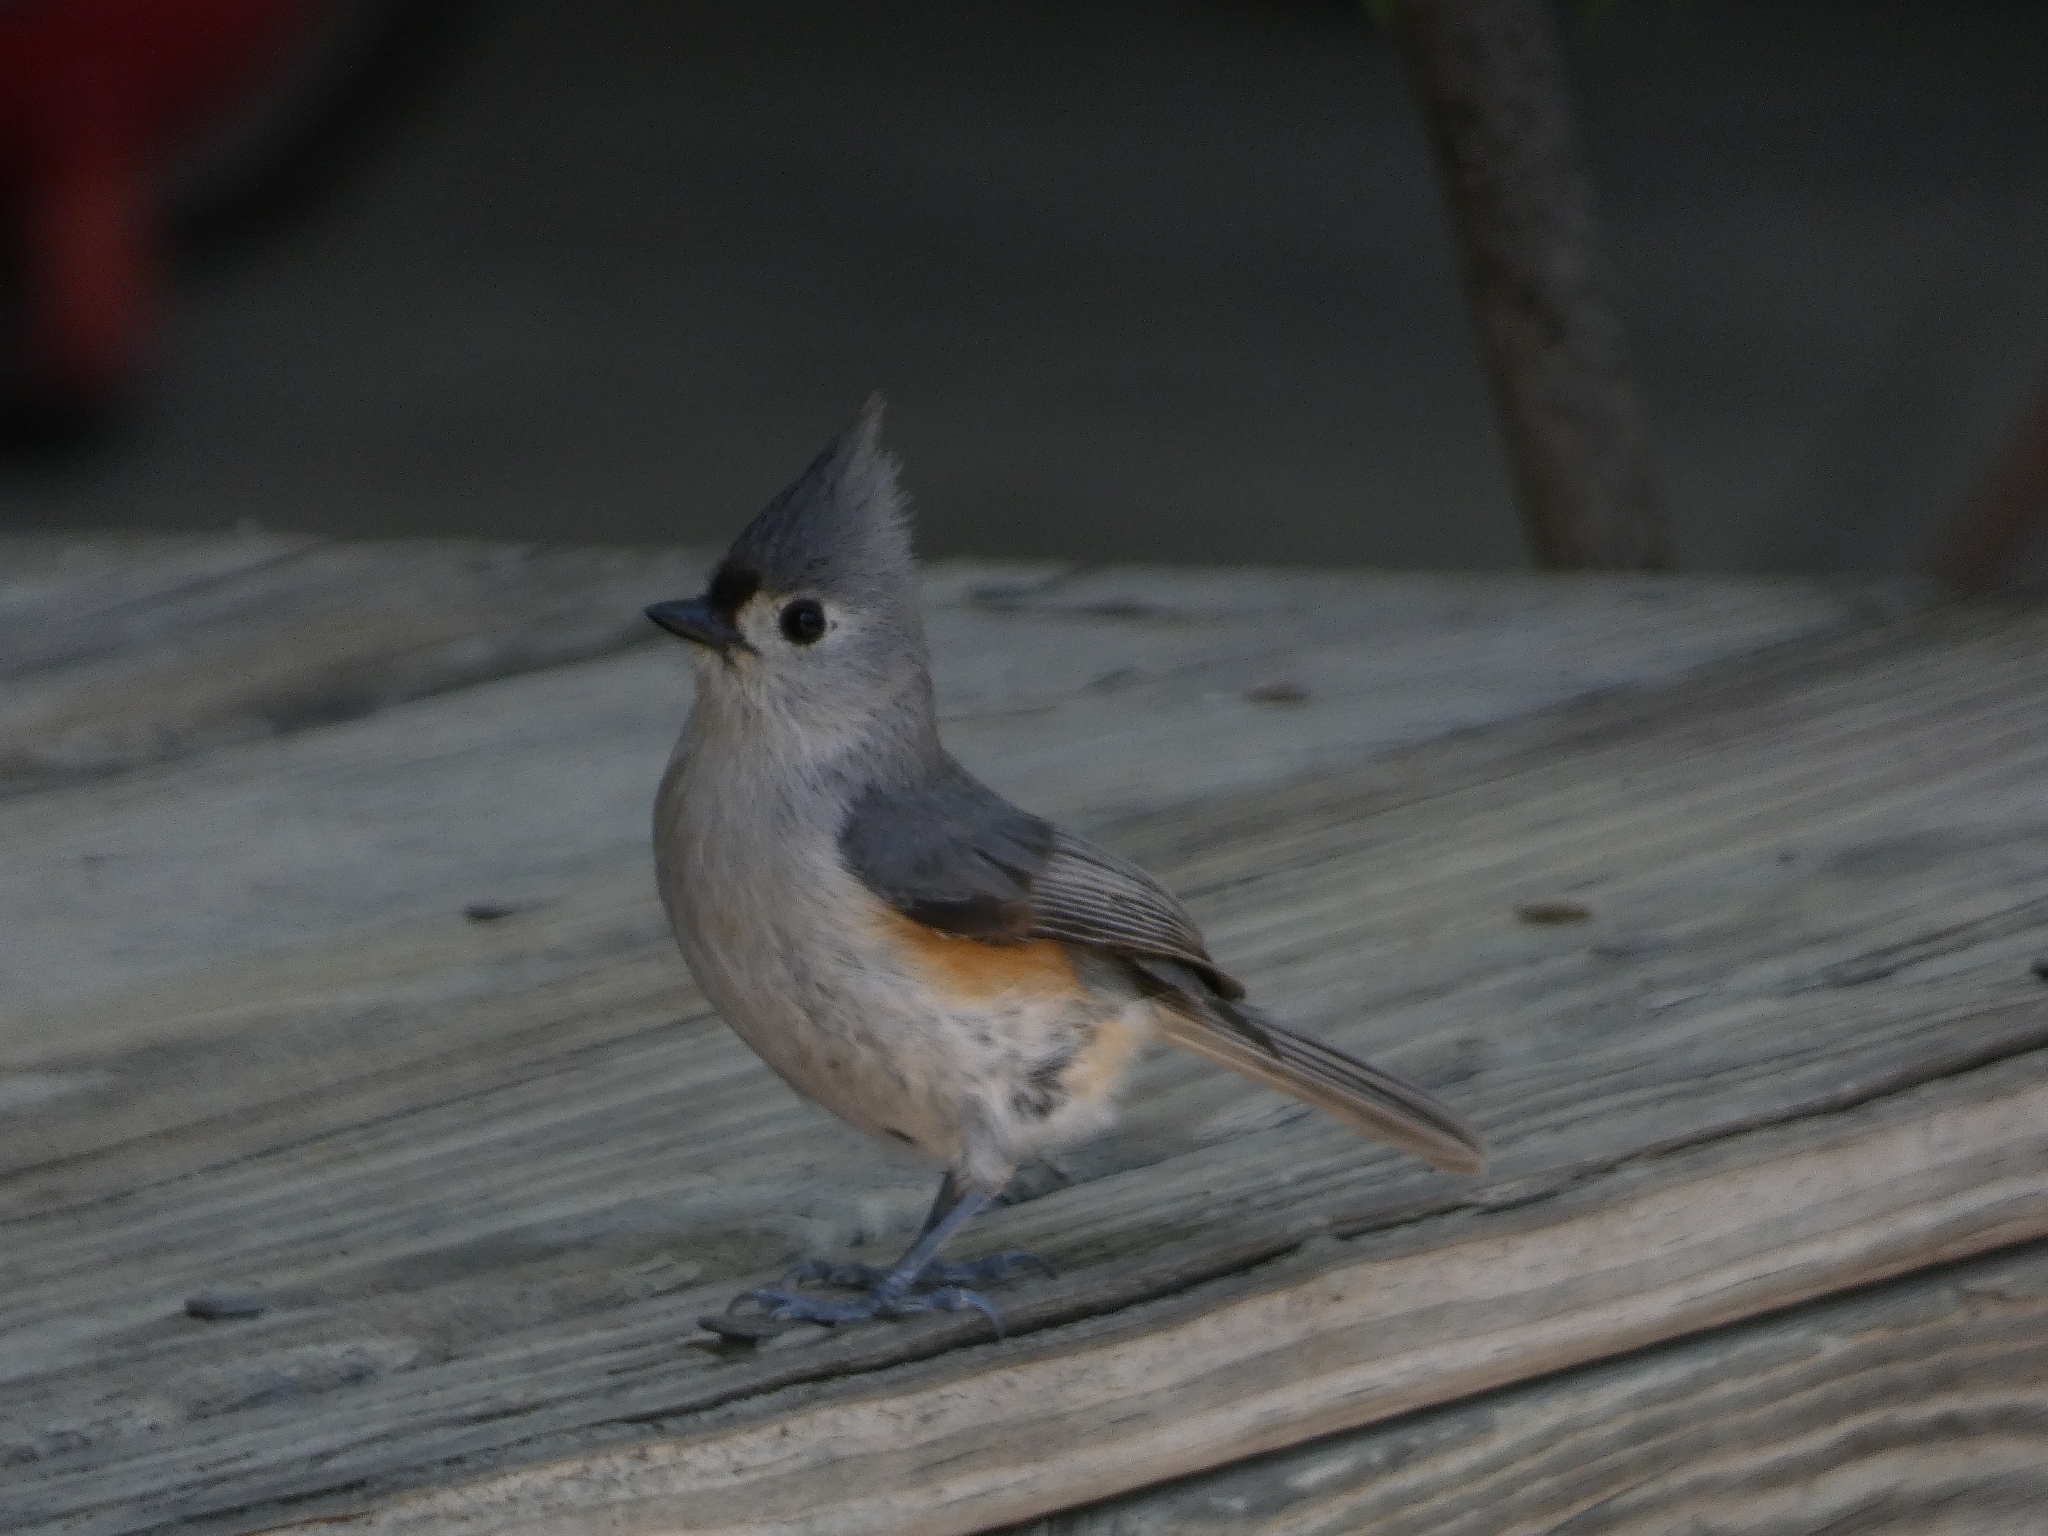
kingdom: Animalia
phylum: Chordata
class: Aves
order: Passeriformes
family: Paridae
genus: Baeolophus
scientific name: Baeolophus bicolor
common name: Tufted titmouse
